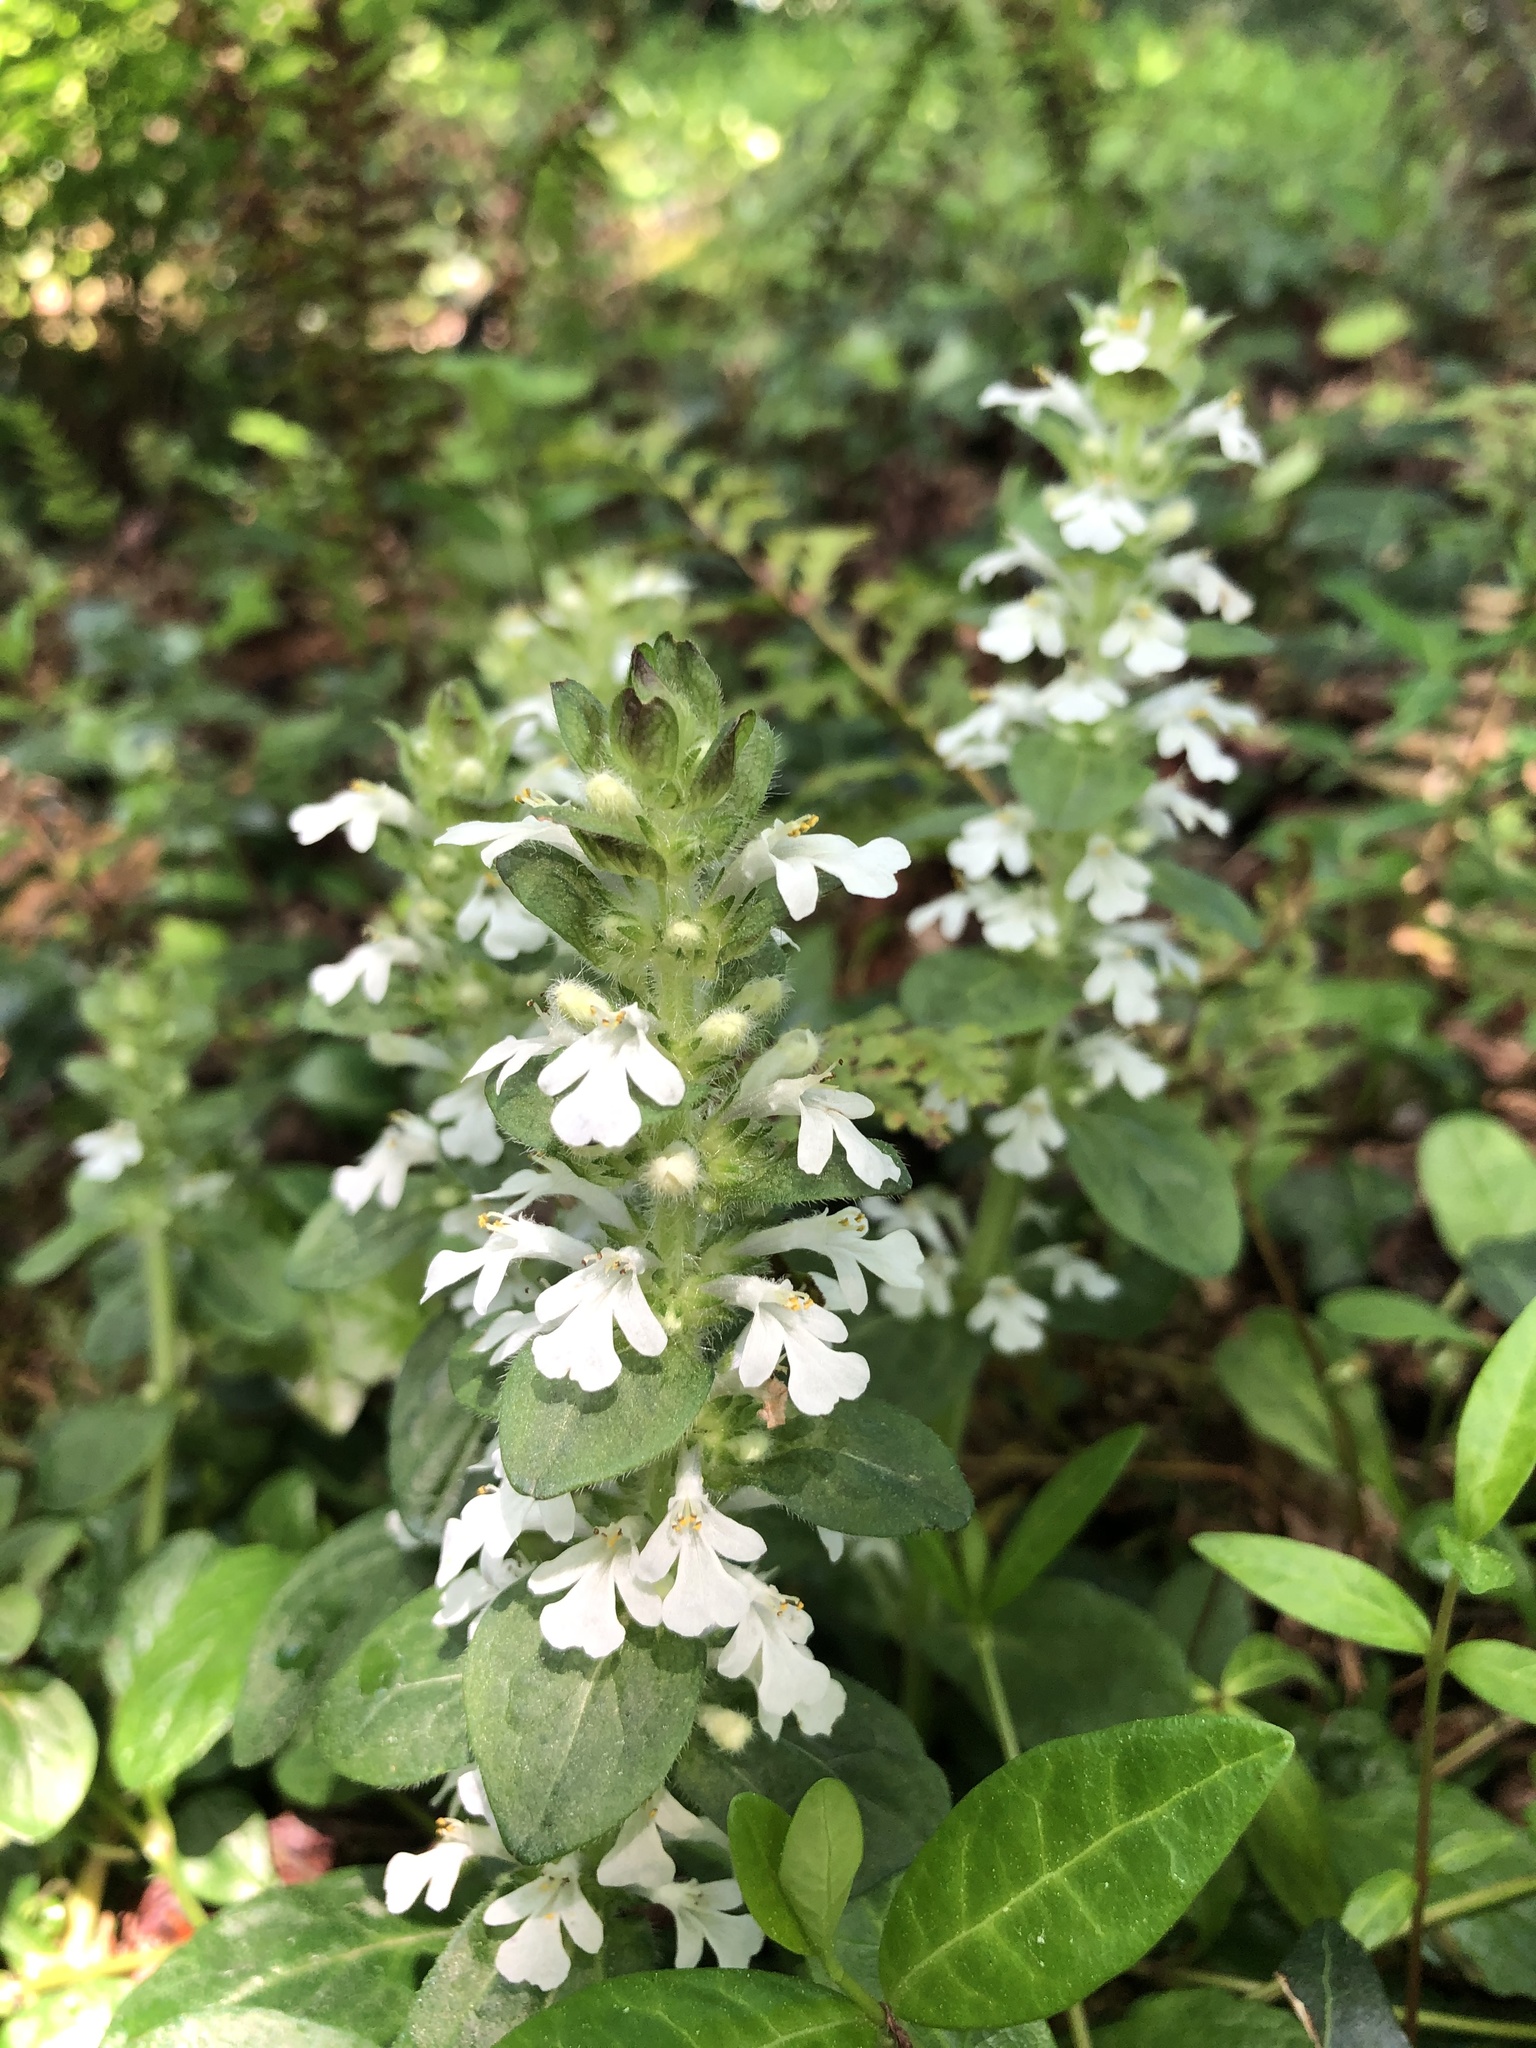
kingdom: Plantae
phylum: Tracheophyta
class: Magnoliopsida
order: Lamiales
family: Lamiaceae
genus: Ajuga
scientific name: Ajuga reptans
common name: Bugle
